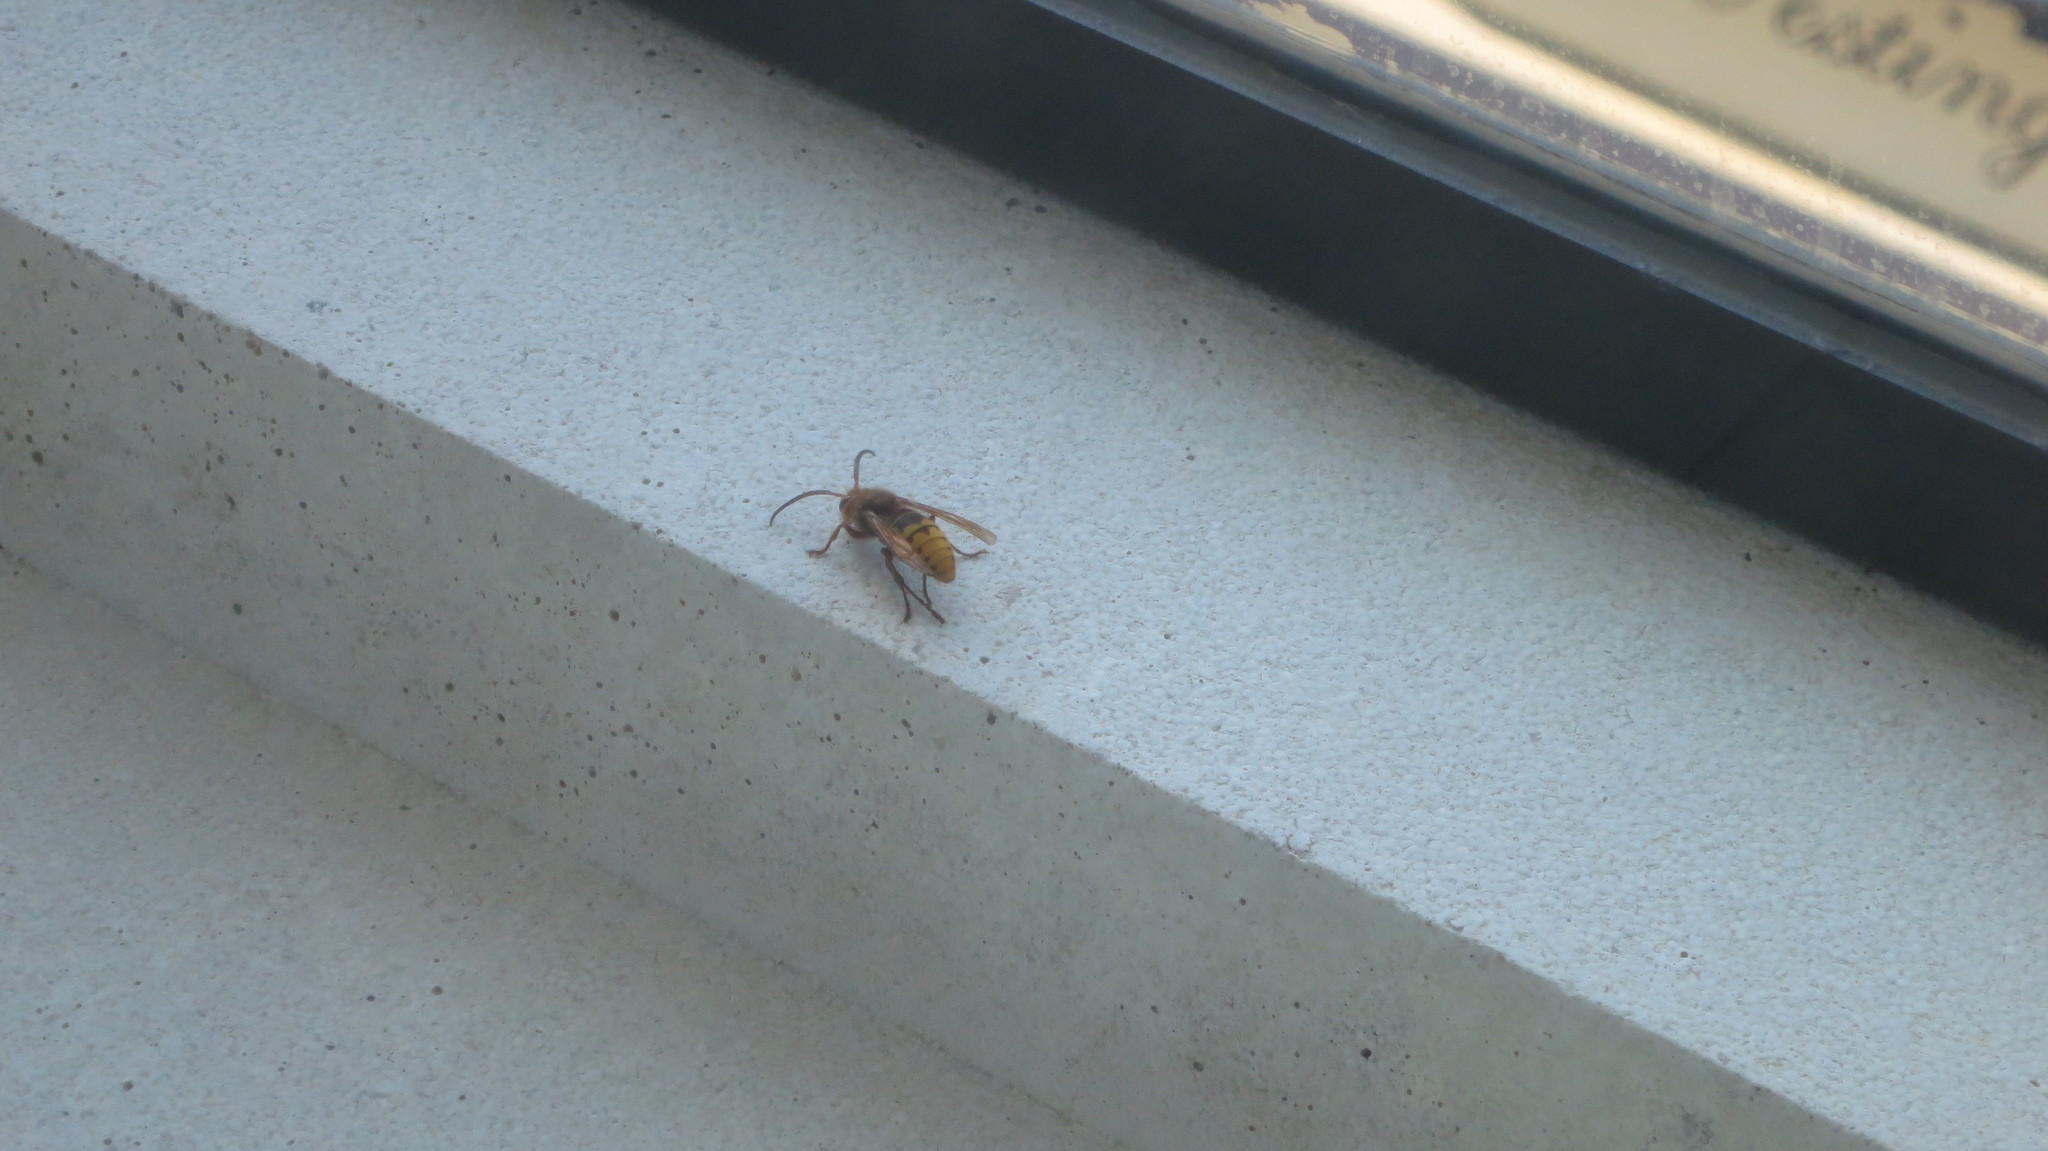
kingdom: Animalia
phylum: Arthropoda
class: Insecta
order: Hymenoptera
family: Vespidae
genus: Vespa
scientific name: Vespa crabro
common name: Hornet
